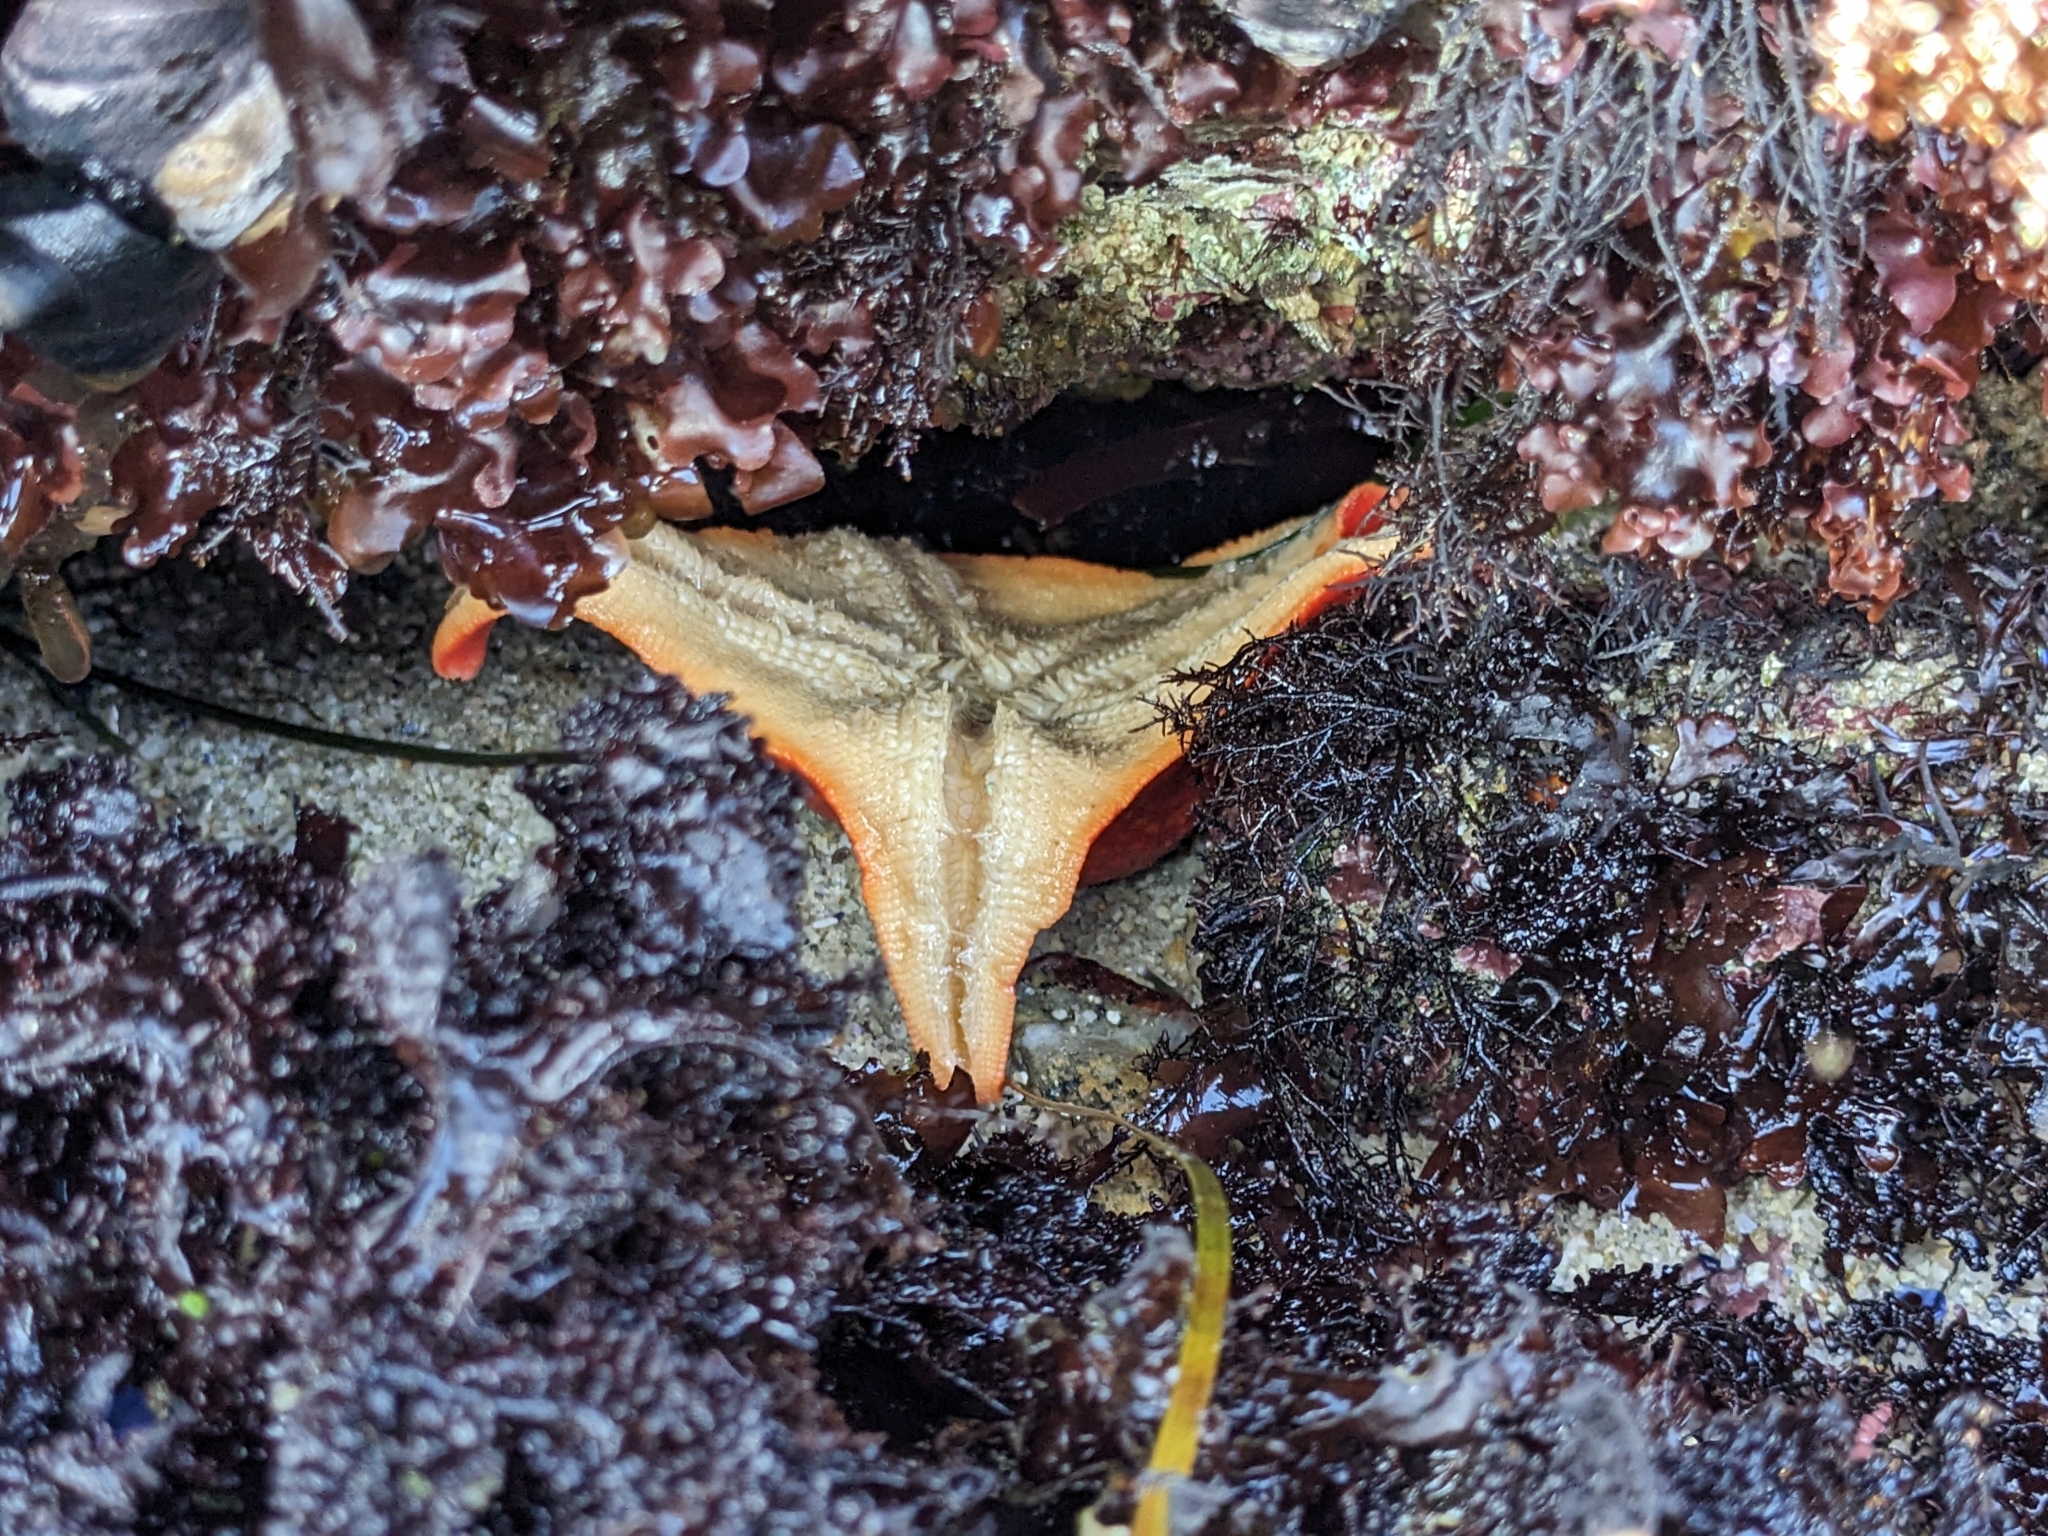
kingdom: Animalia
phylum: Echinodermata
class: Asteroidea
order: Valvatida
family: Asterinidae
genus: Patiria
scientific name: Patiria miniata
